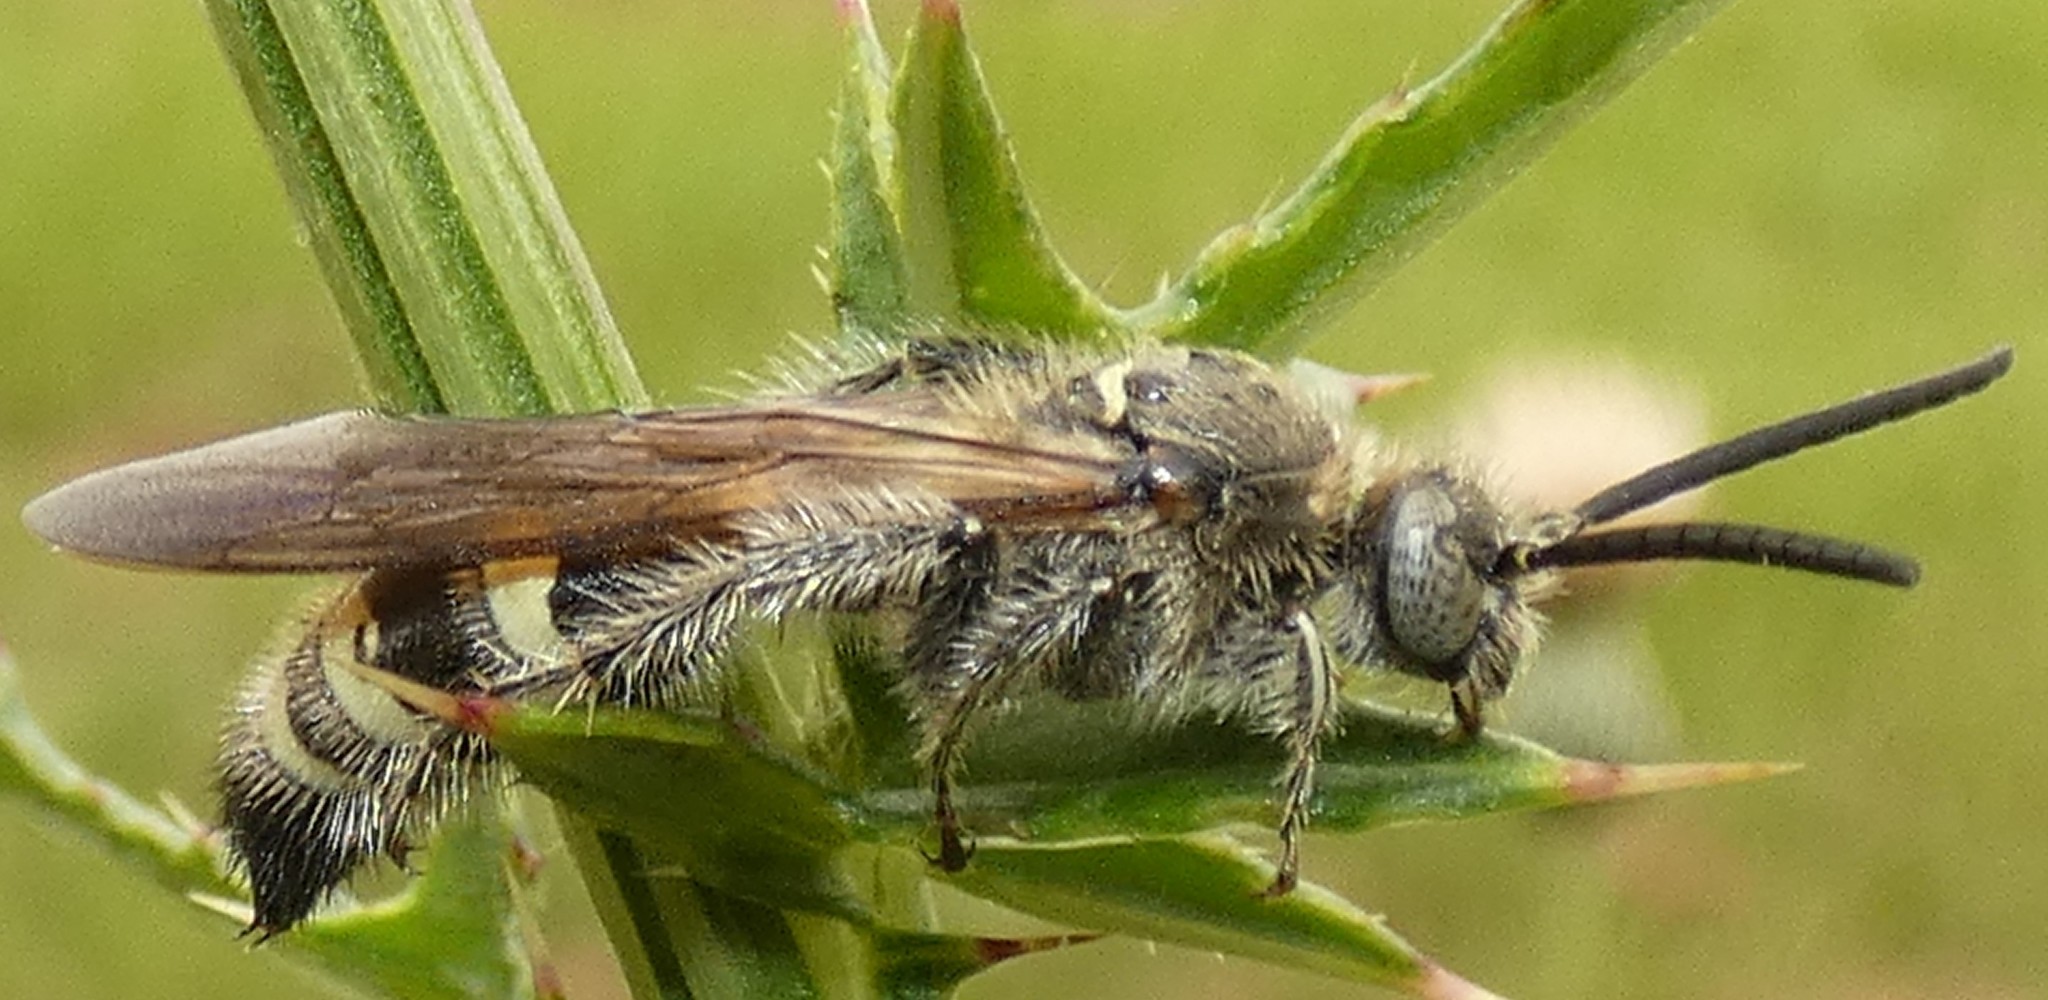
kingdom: Animalia
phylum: Arthropoda
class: Insecta
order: Hymenoptera
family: Scoliidae
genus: Dielis
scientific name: Dielis
